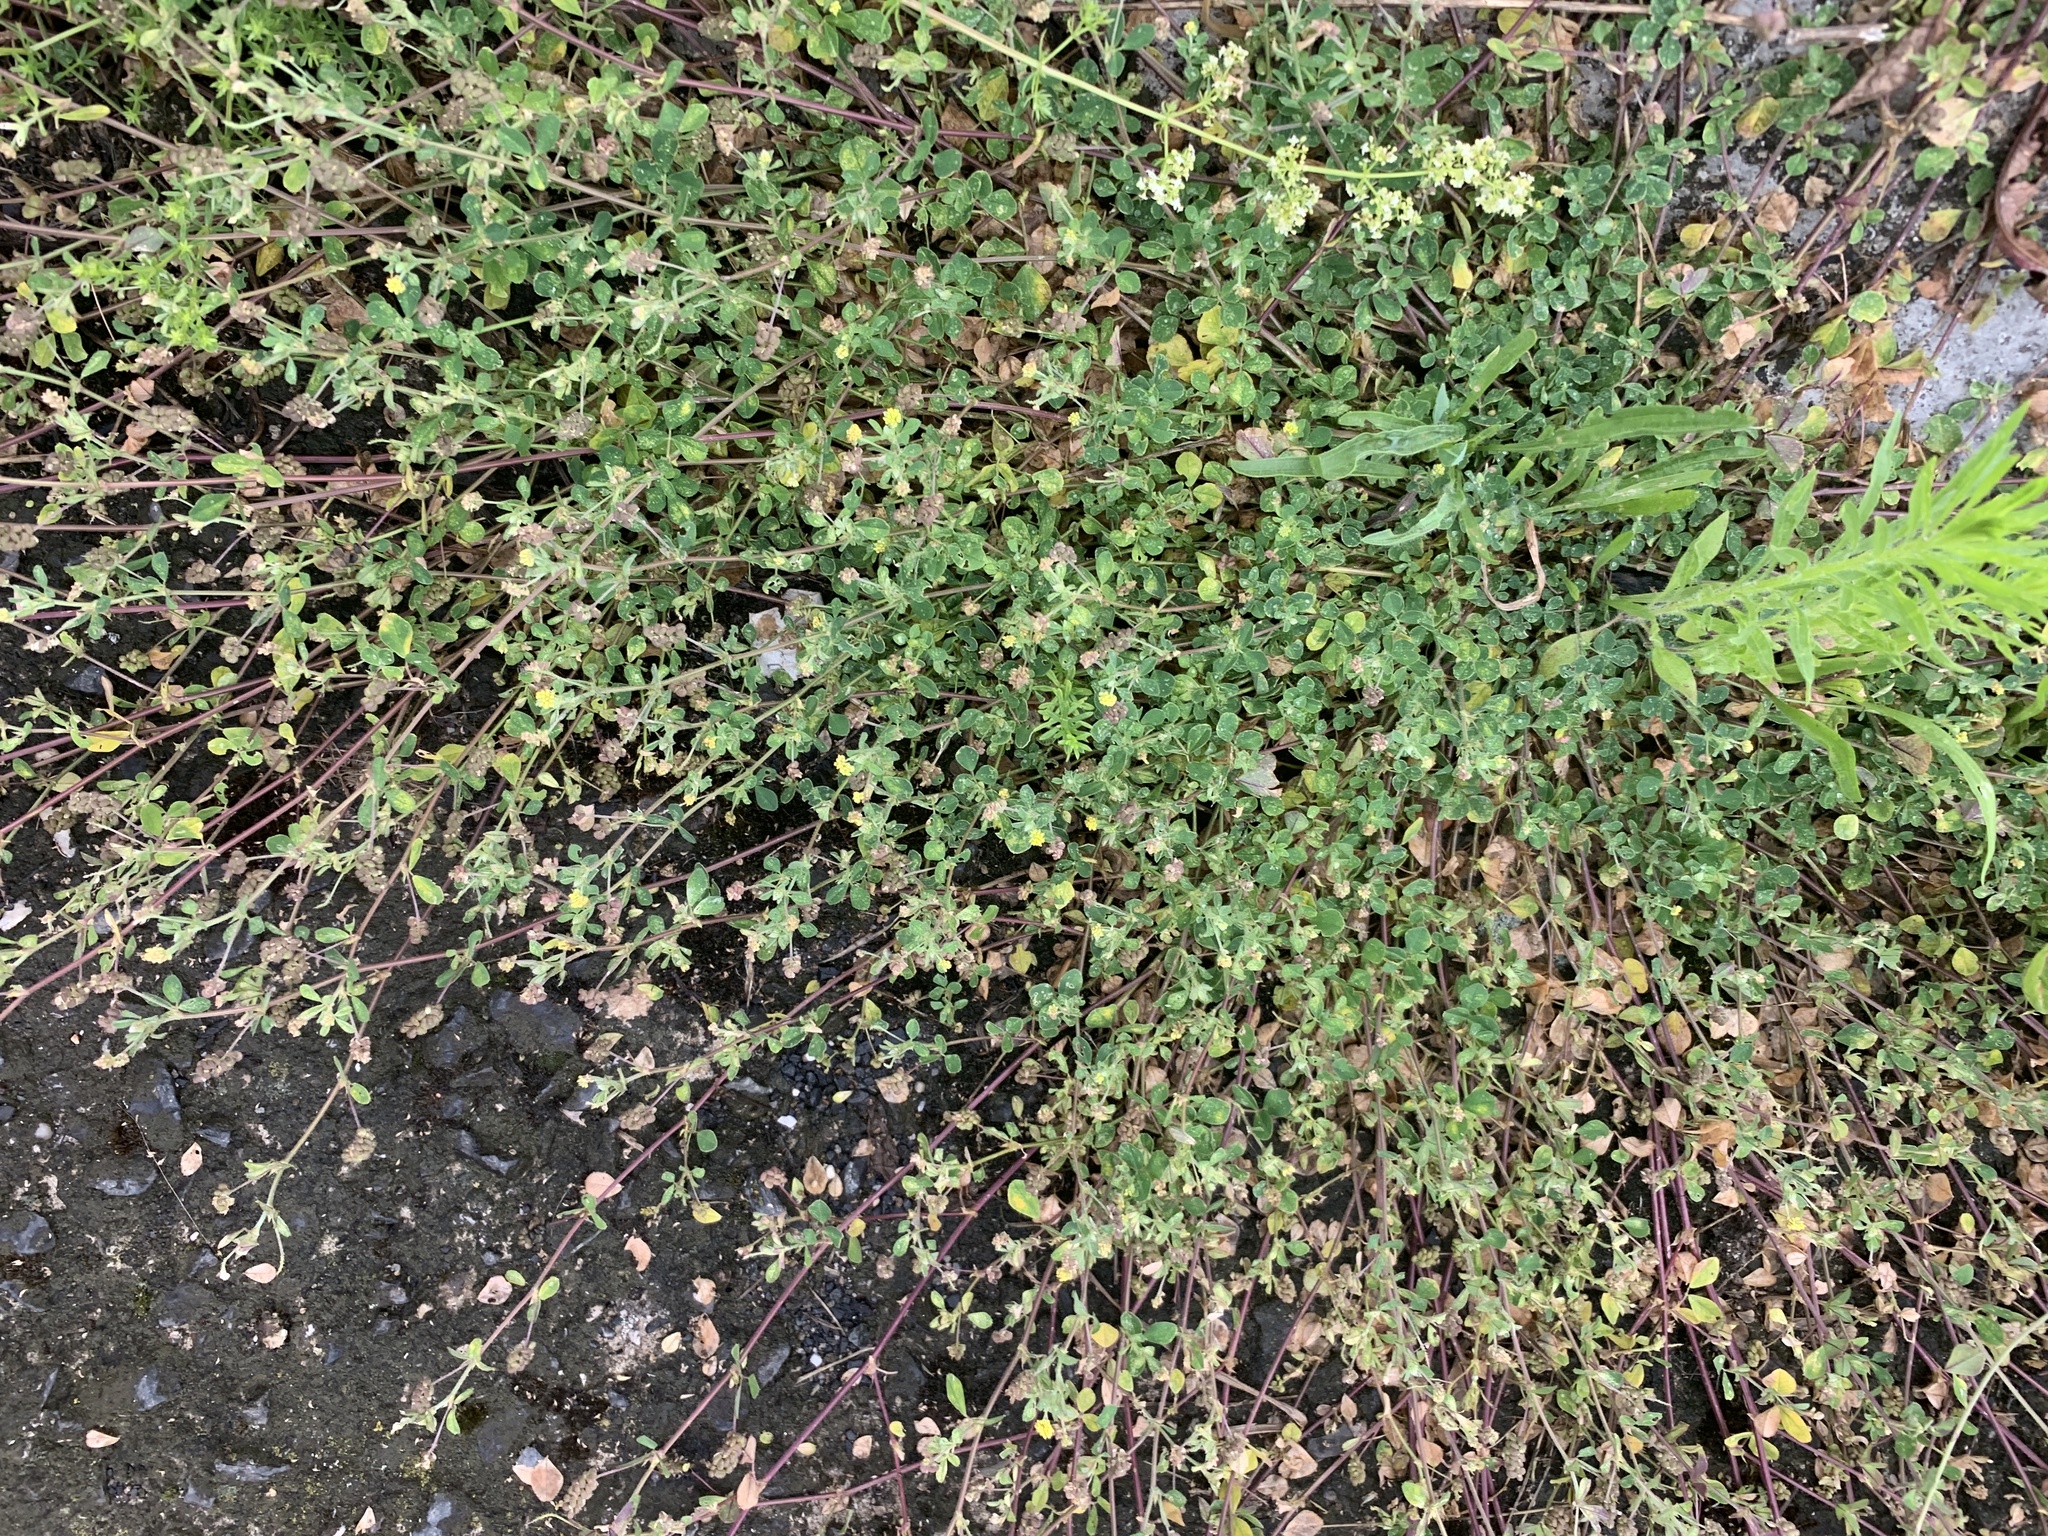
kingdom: Plantae
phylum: Tracheophyta
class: Magnoliopsida
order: Fabales
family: Fabaceae
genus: Medicago
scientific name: Medicago lupulina
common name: Black medick
